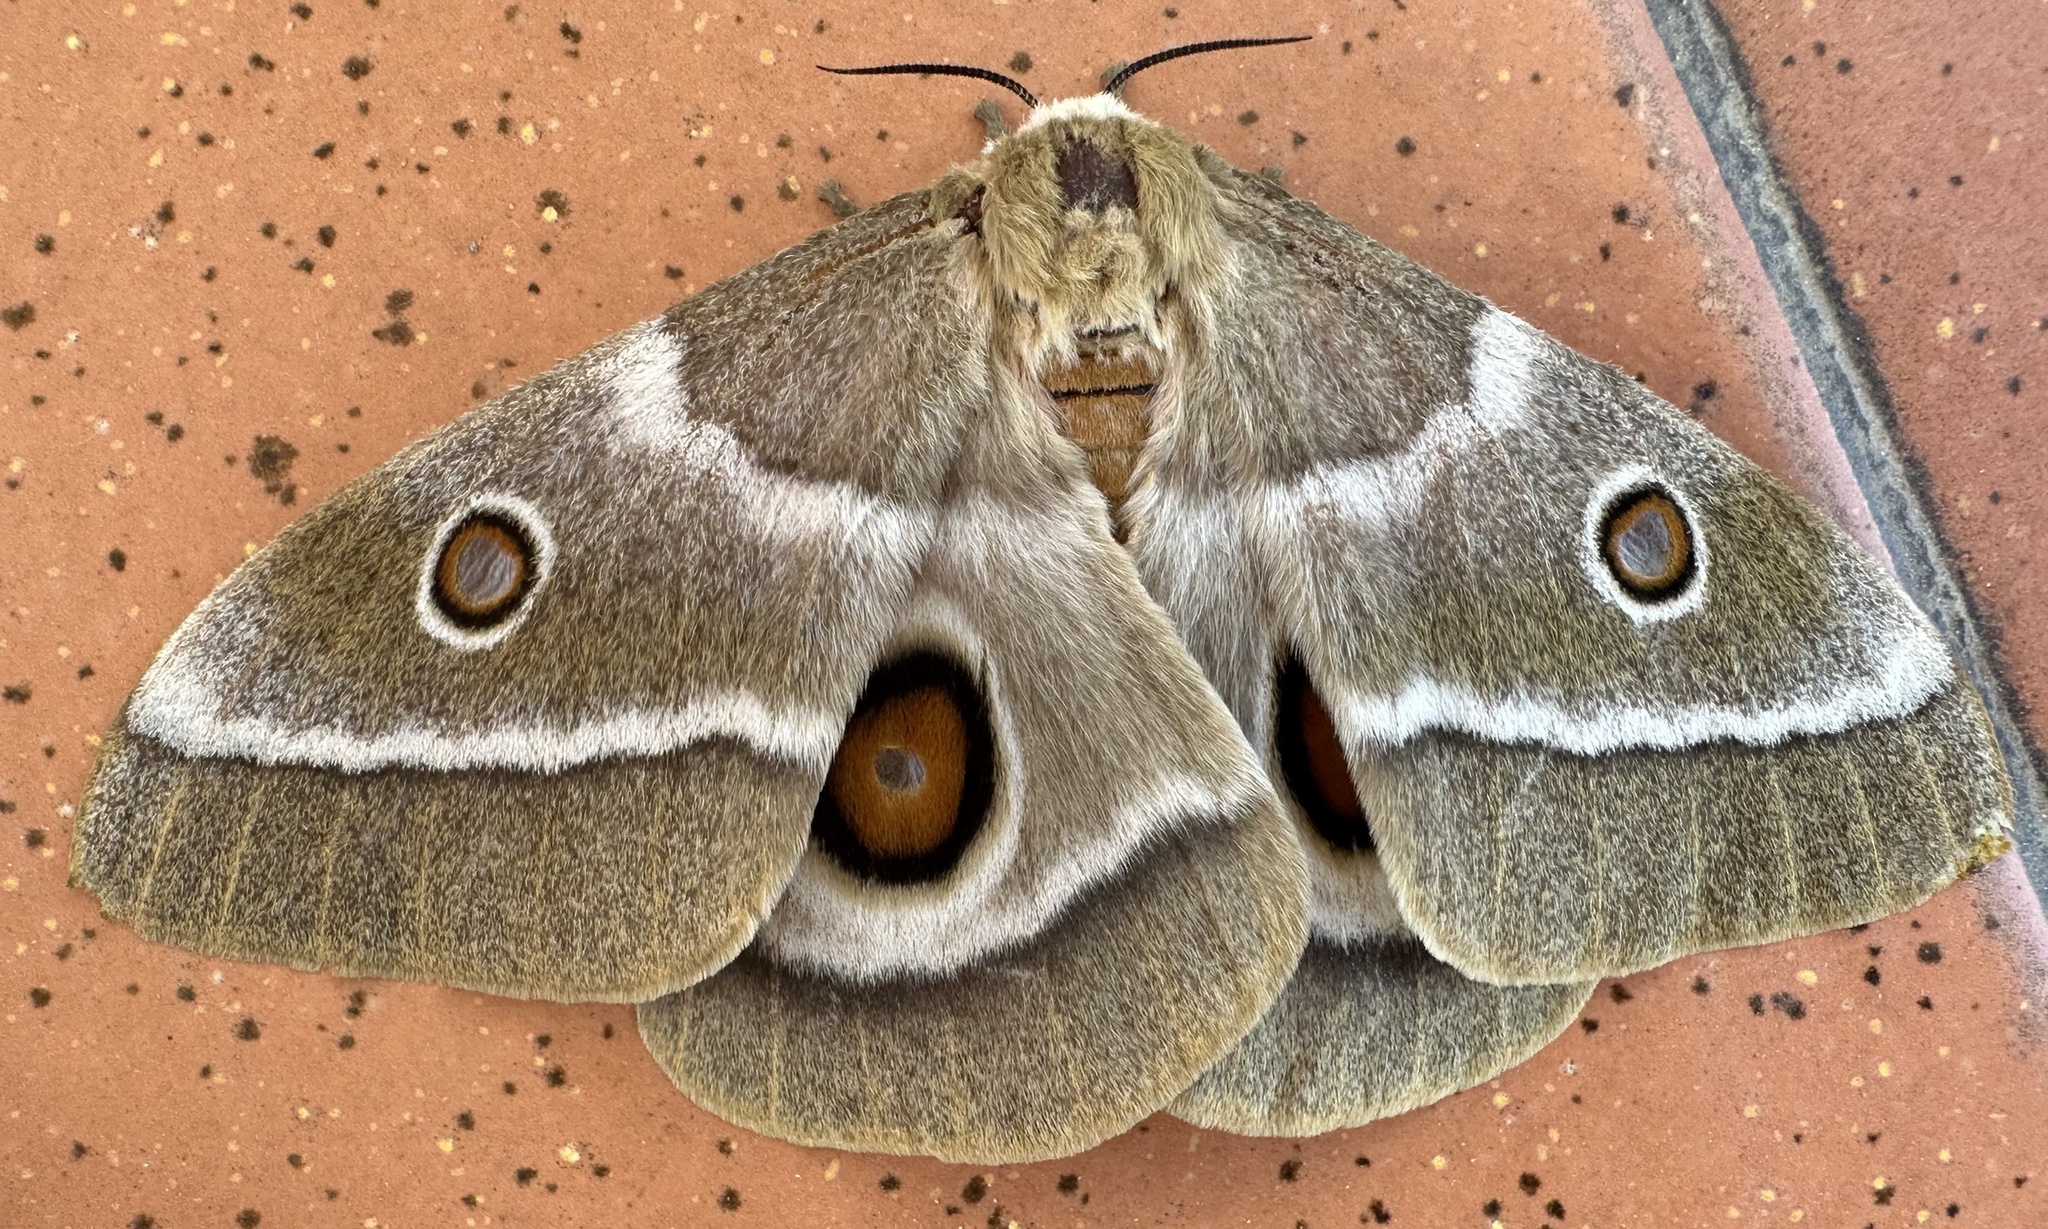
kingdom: Animalia
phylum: Arthropoda
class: Insecta
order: Lepidoptera
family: Saturniidae
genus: Gonimbrasia
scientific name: Gonimbrasia belina
